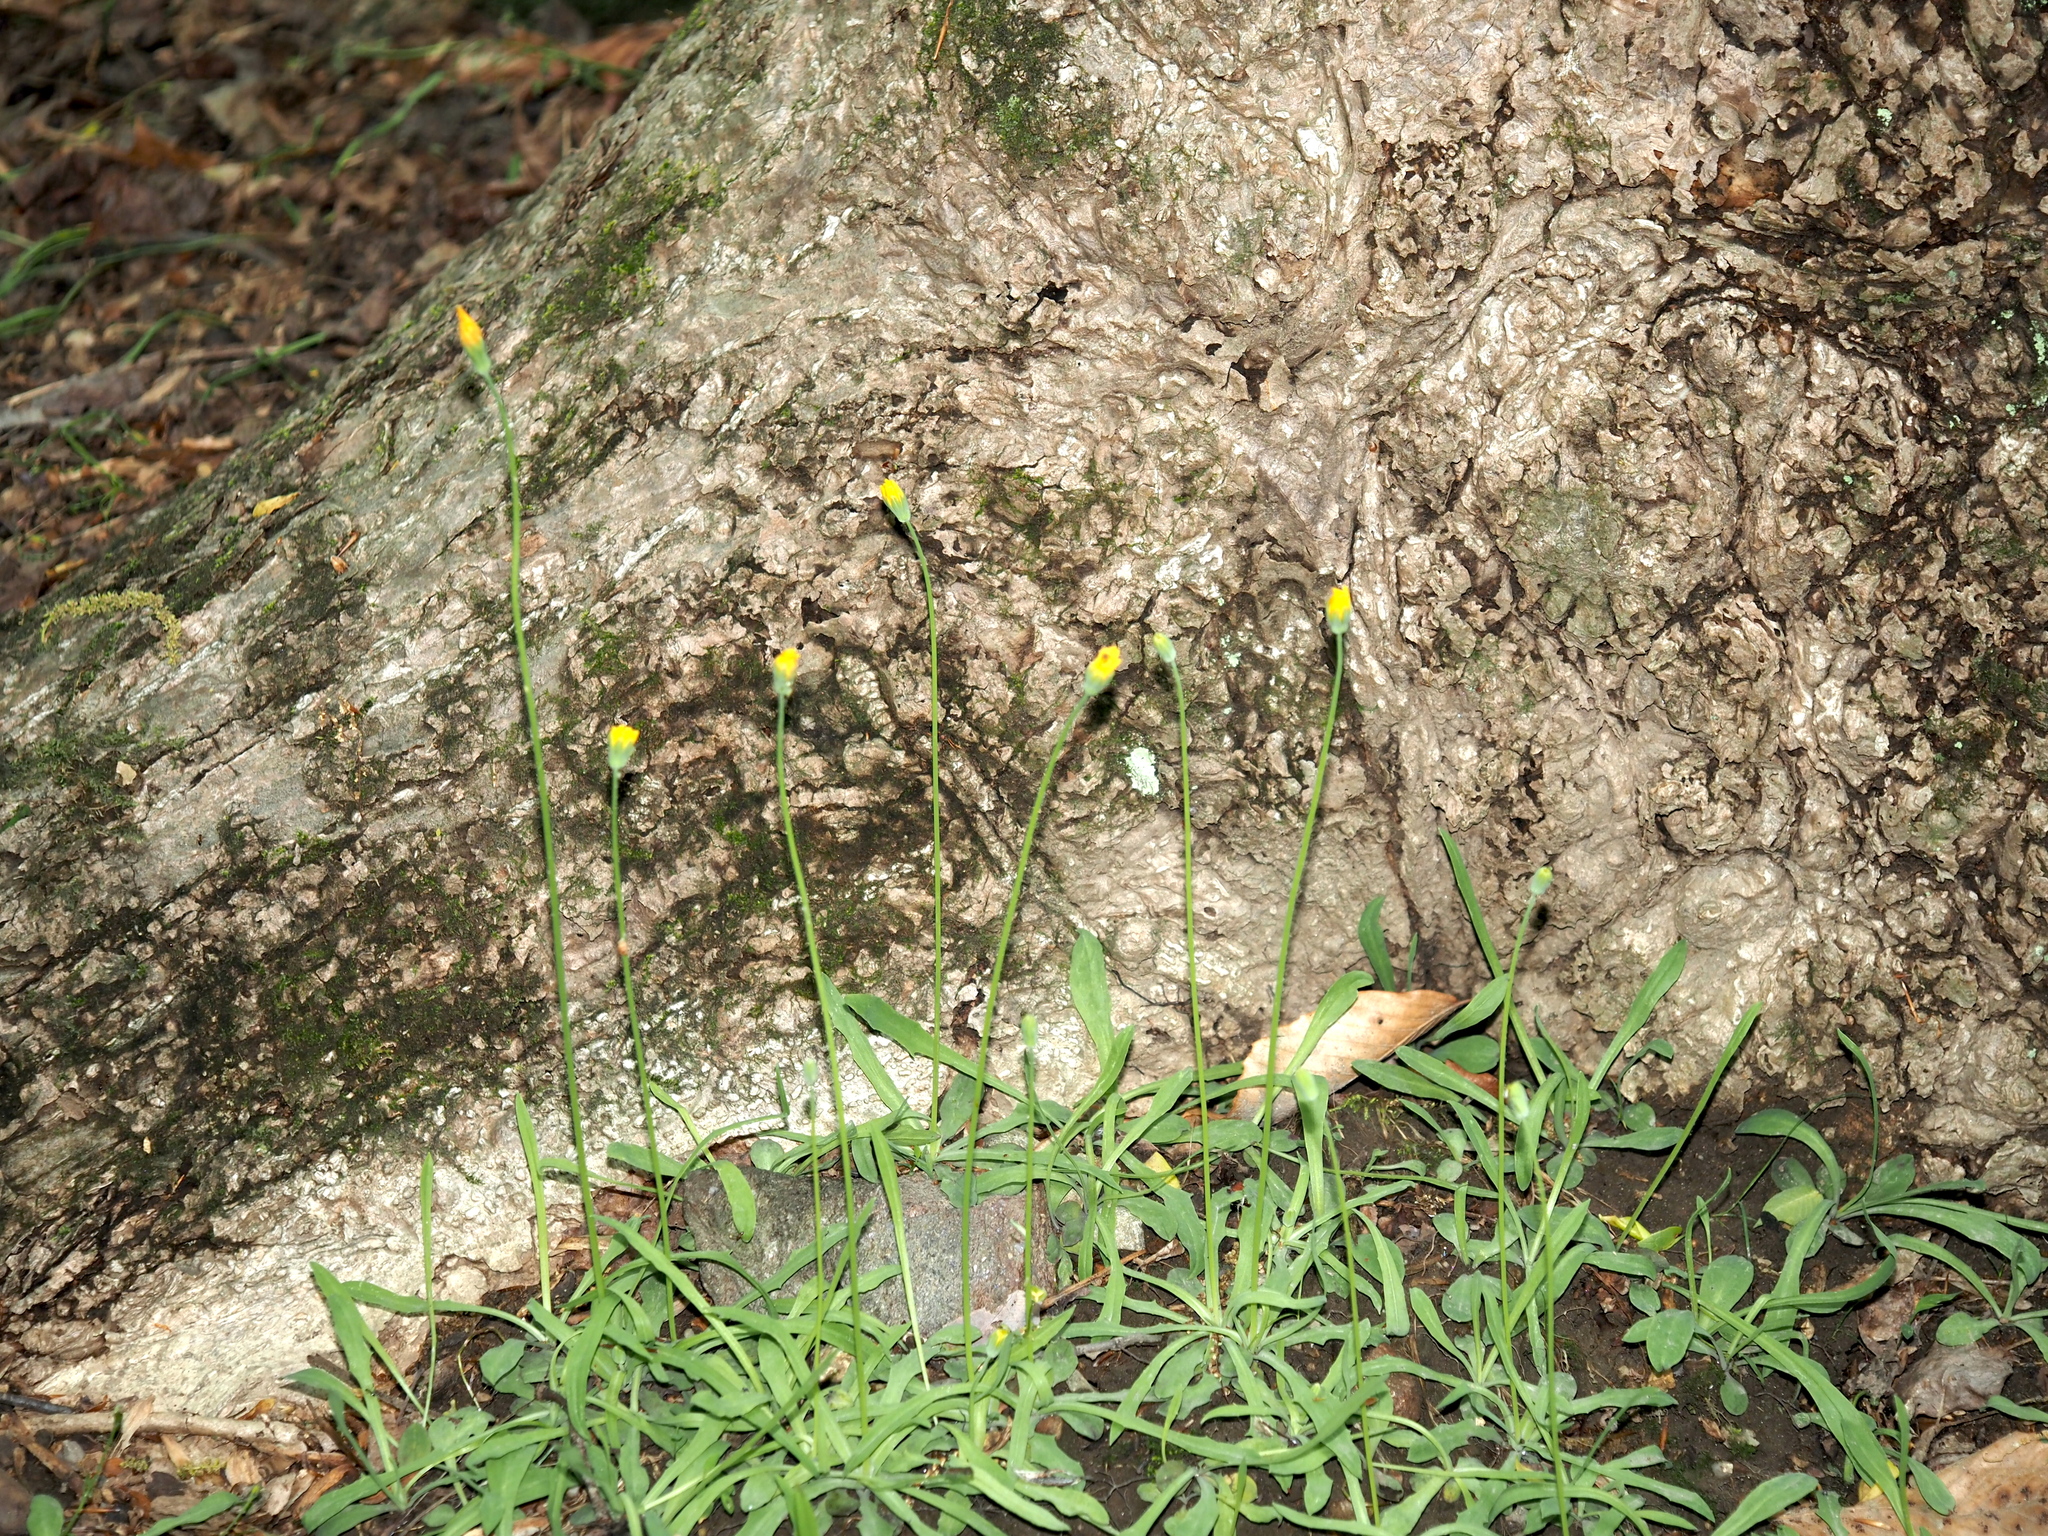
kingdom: Plantae
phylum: Tracheophyta
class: Magnoliopsida
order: Asterales
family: Asteraceae
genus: Krigia
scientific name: Krigia dandelion
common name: Colonial dwarf-dandelion
